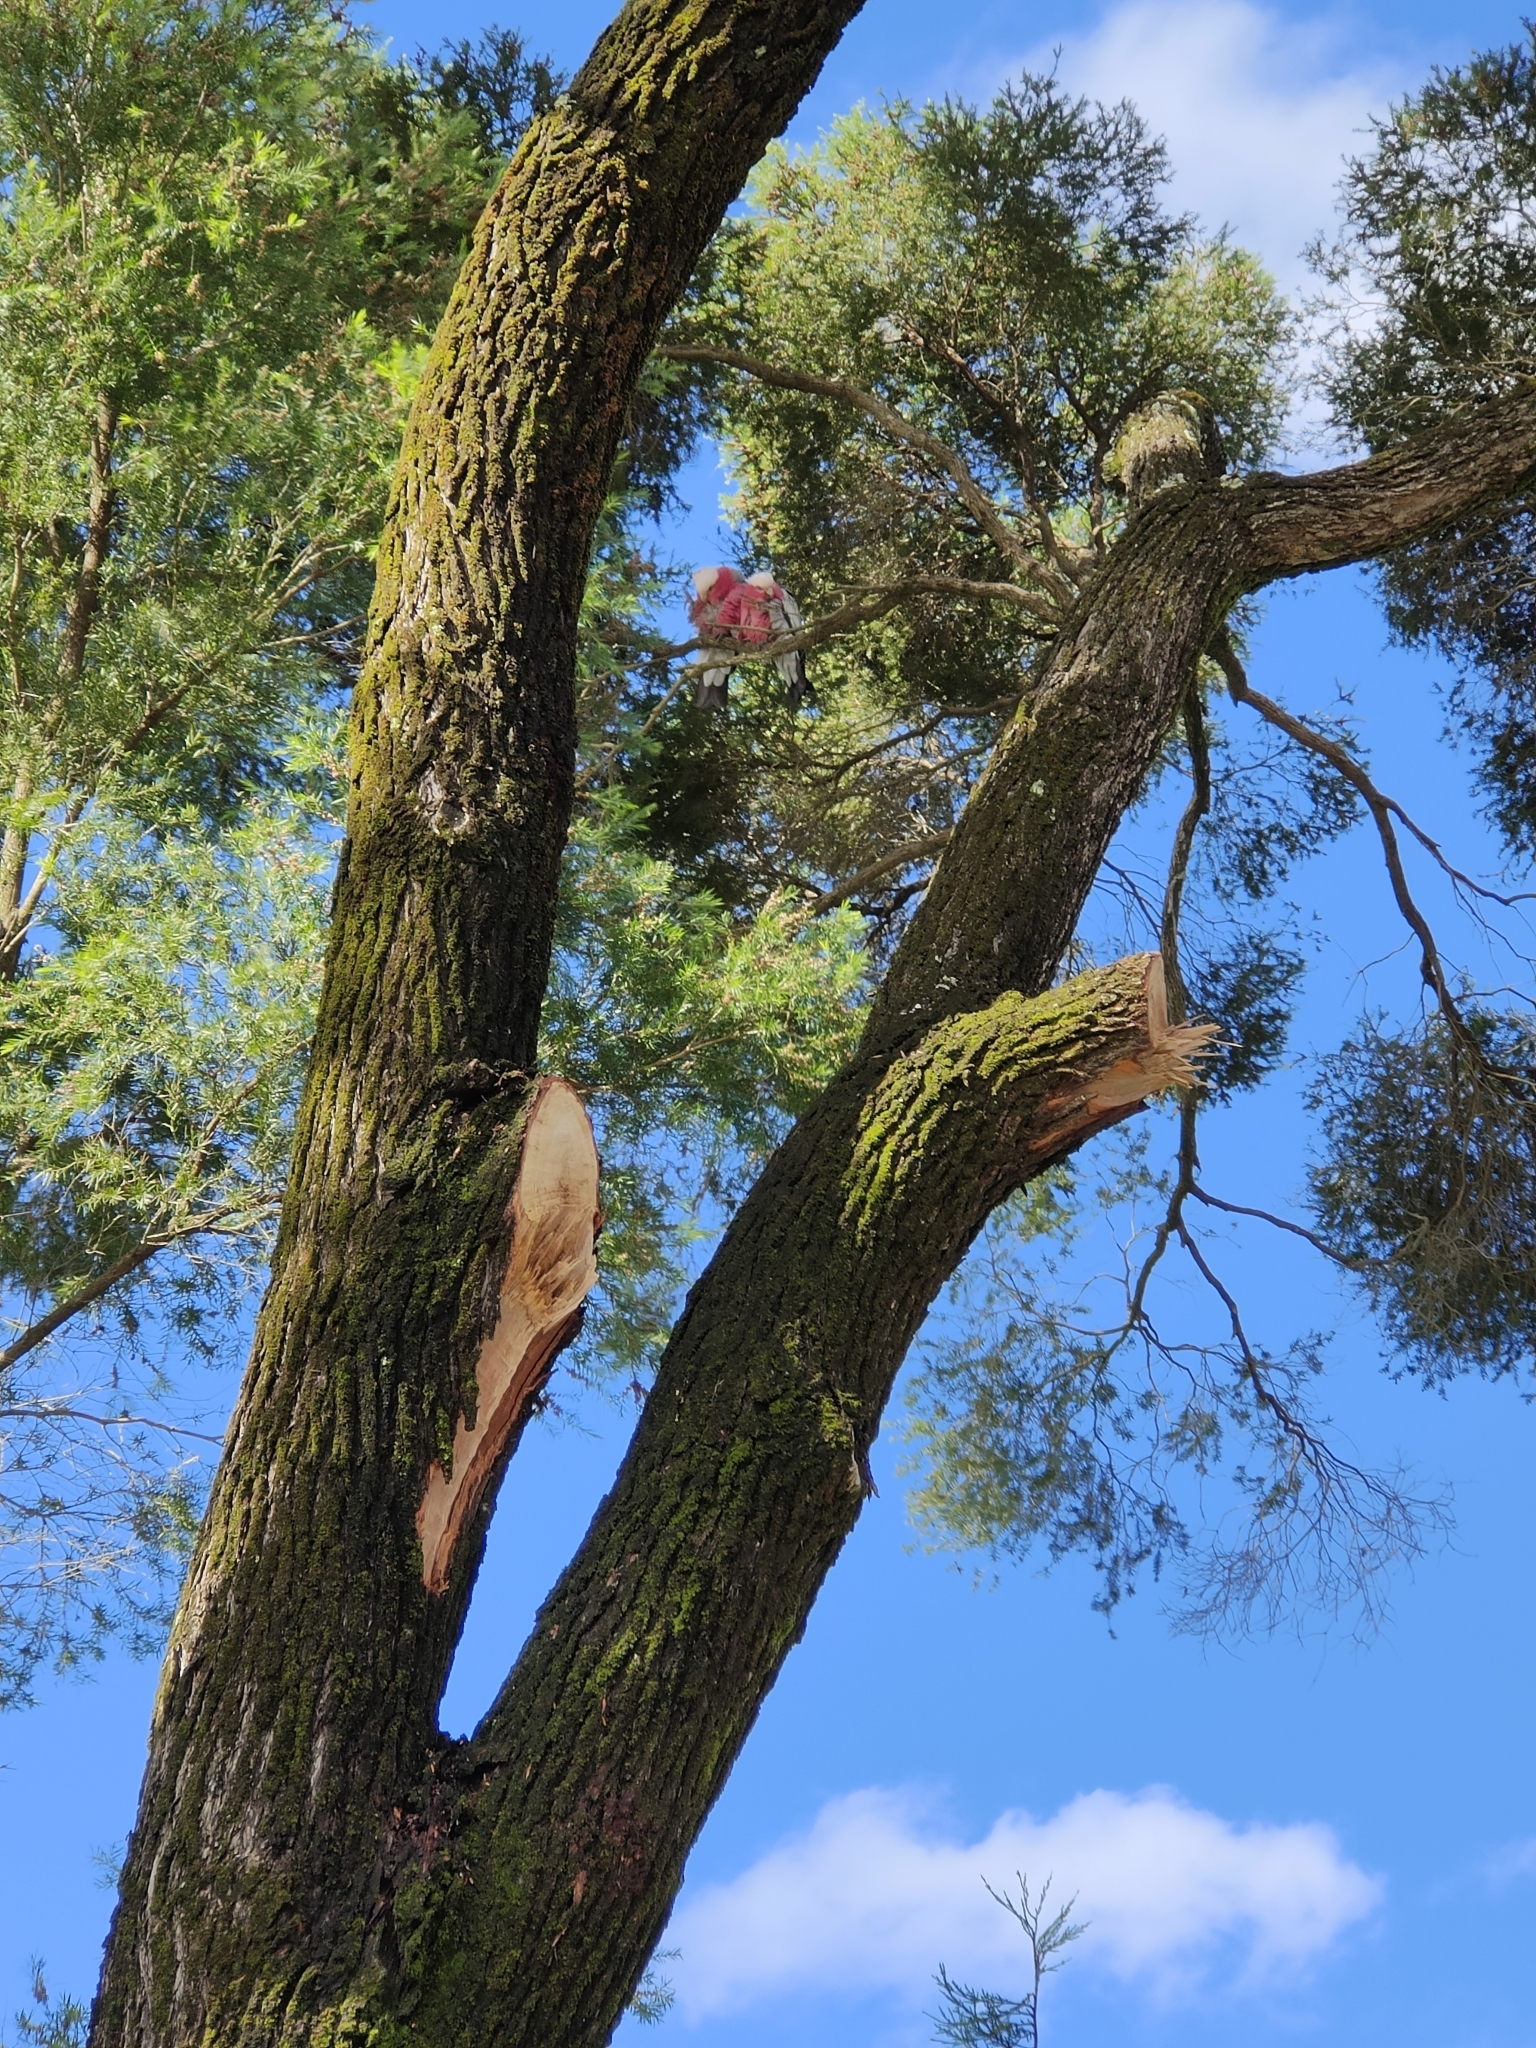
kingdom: Animalia
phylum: Chordata
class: Aves
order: Psittaciformes
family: Psittacidae
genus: Eolophus
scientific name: Eolophus roseicapilla
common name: Galah
